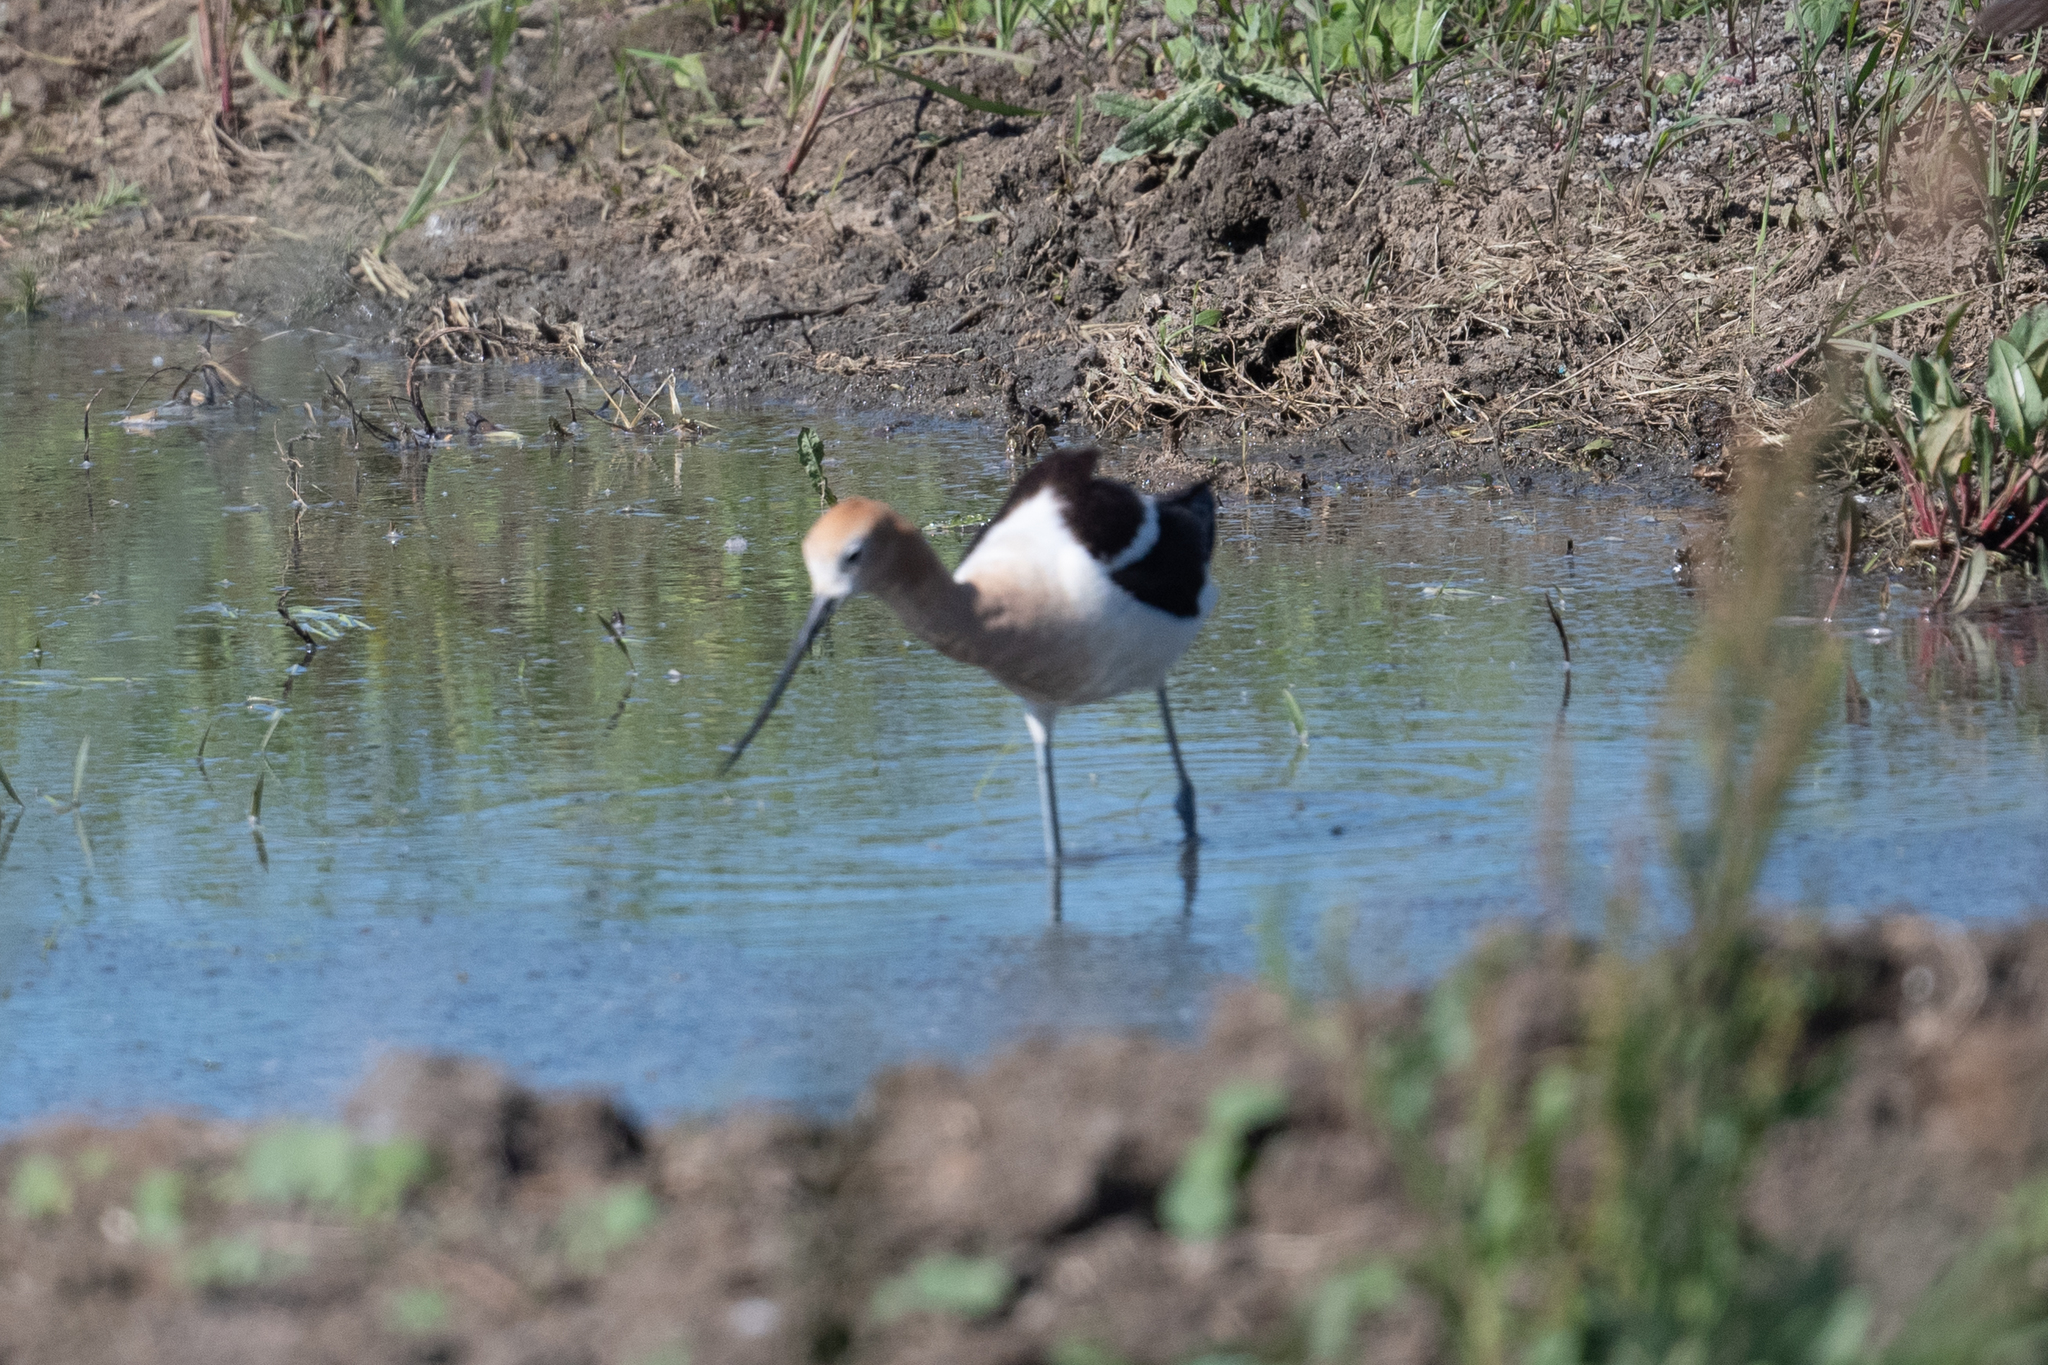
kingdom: Animalia
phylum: Chordata
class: Aves
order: Charadriiformes
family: Recurvirostridae
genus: Recurvirostra
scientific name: Recurvirostra americana
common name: American avocet
